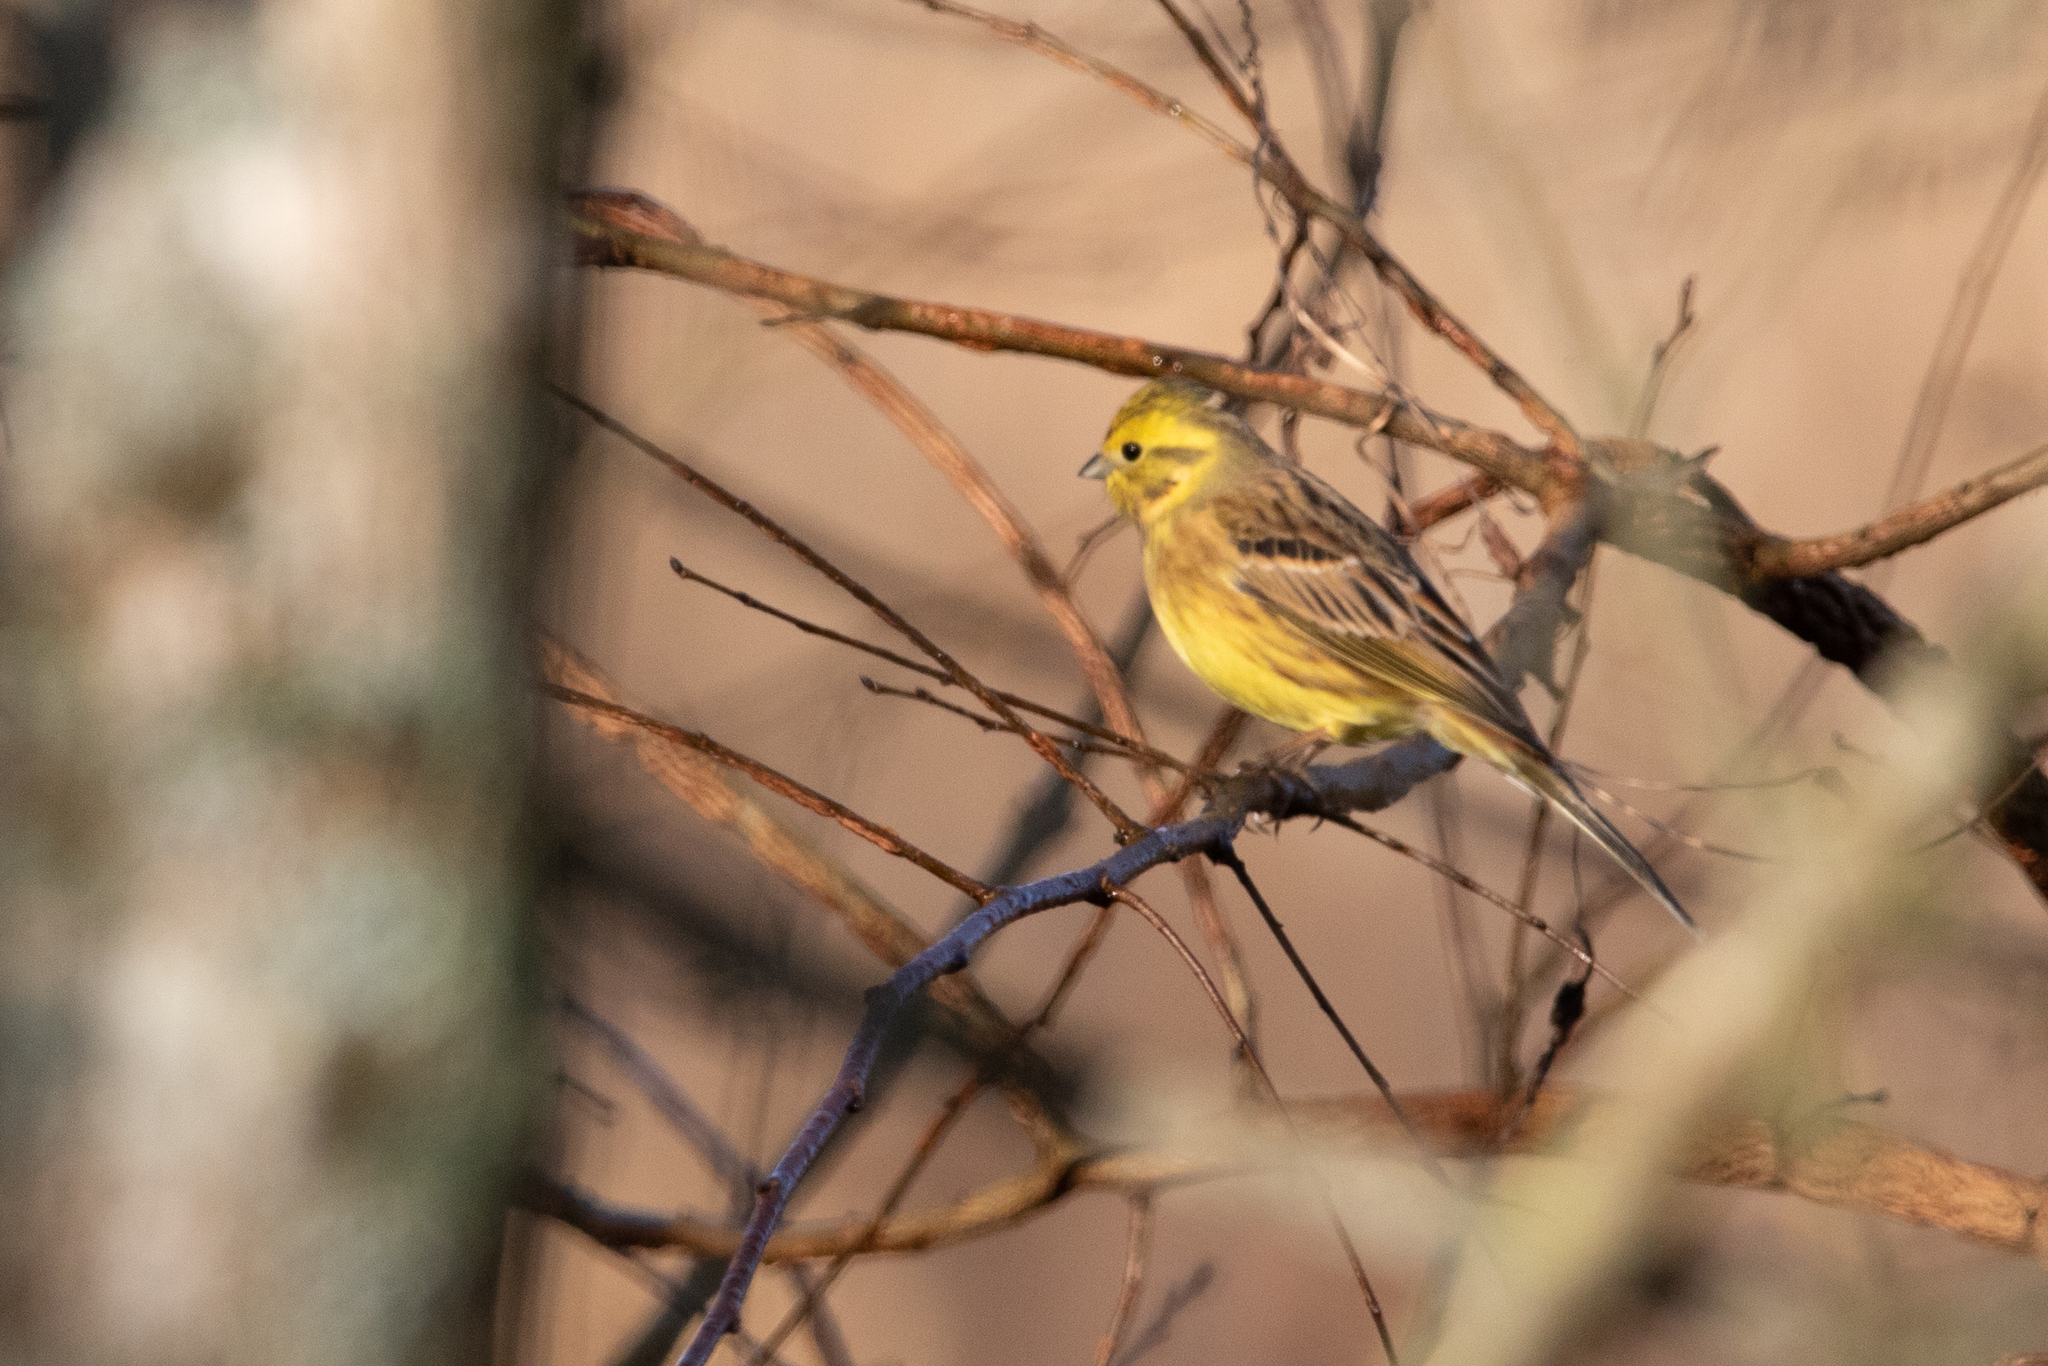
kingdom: Animalia
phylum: Chordata
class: Aves
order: Passeriformes
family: Emberizidae
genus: Emberiza
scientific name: Emberiza citrinella
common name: Yellowhammer
